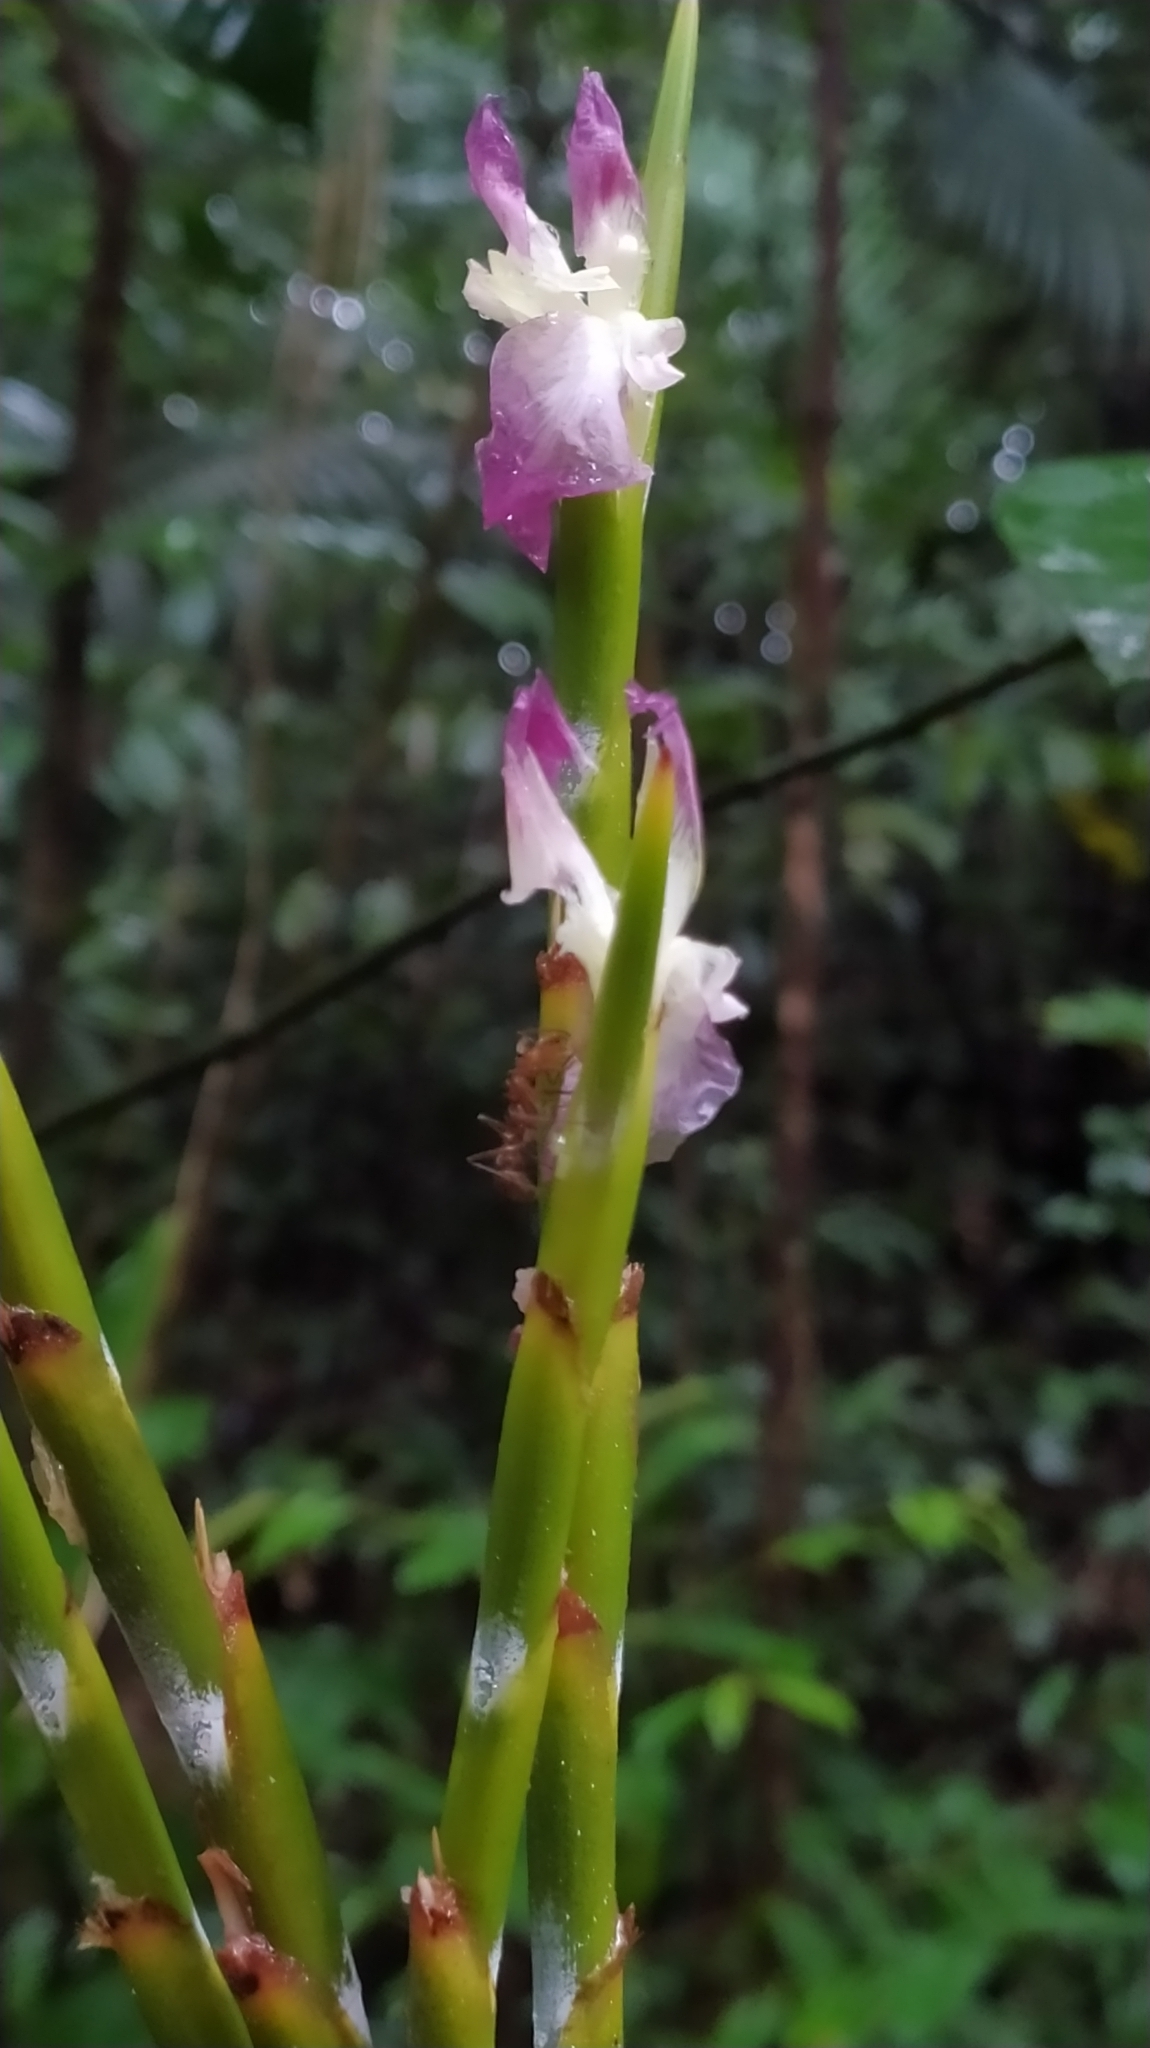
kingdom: Plantae
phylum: Tracheophyta
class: Liliopsida
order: Zingiberales
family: Marantaceae
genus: Ischnosiphon
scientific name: Ischnosiphon petiolatus
